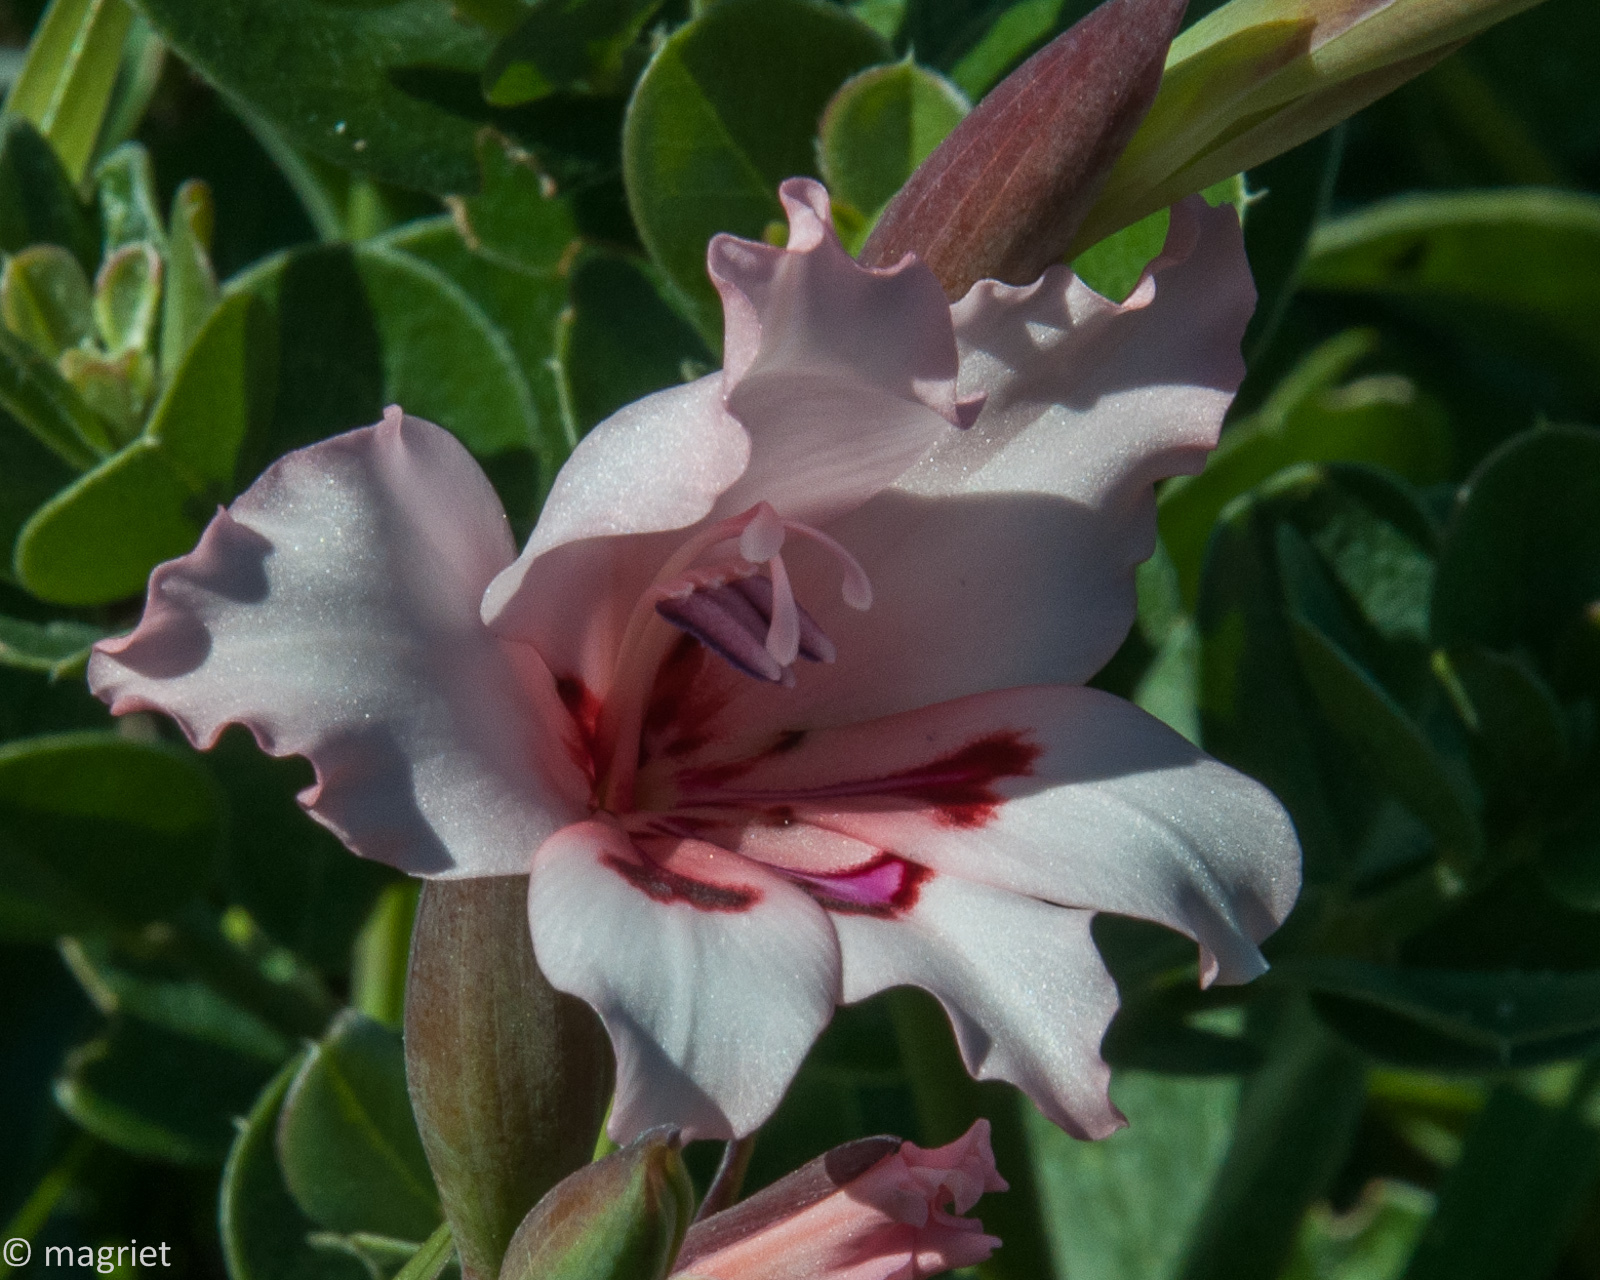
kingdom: Plantae
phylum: Tracheophyta
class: Liliopsida
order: Asparagales
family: Iridaceae
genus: Gladiolus
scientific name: Gladiolus carneus
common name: Painted-lady
